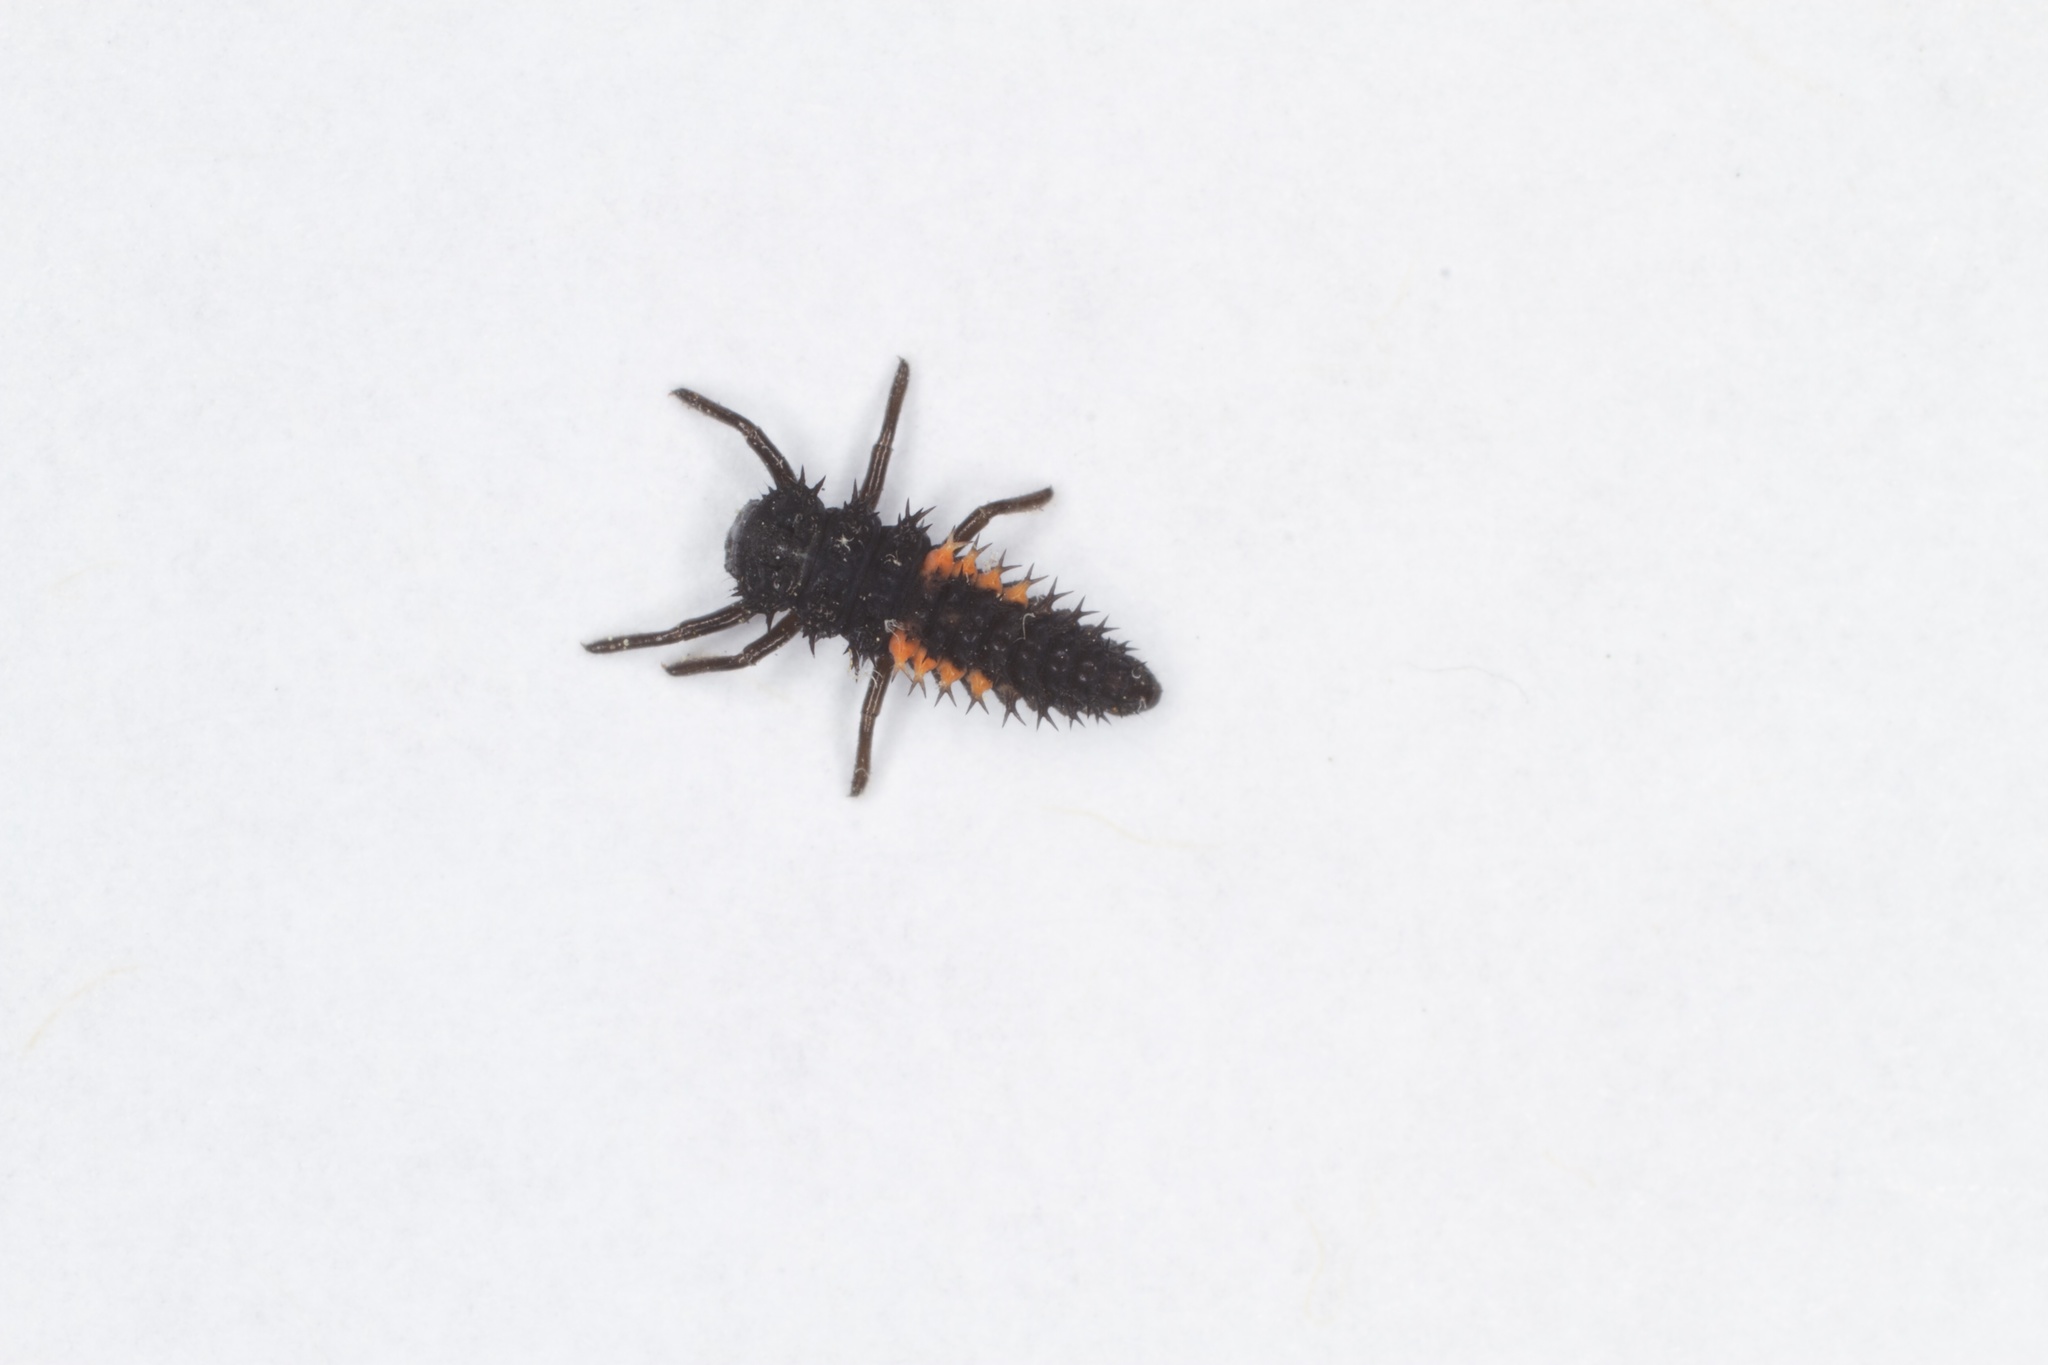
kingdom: Animalia
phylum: Arthropoda
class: Insecta
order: Coleoptera
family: Coccinellidae
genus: Harmonia
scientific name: Harmonia axyridis
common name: Harlequin ladybird
